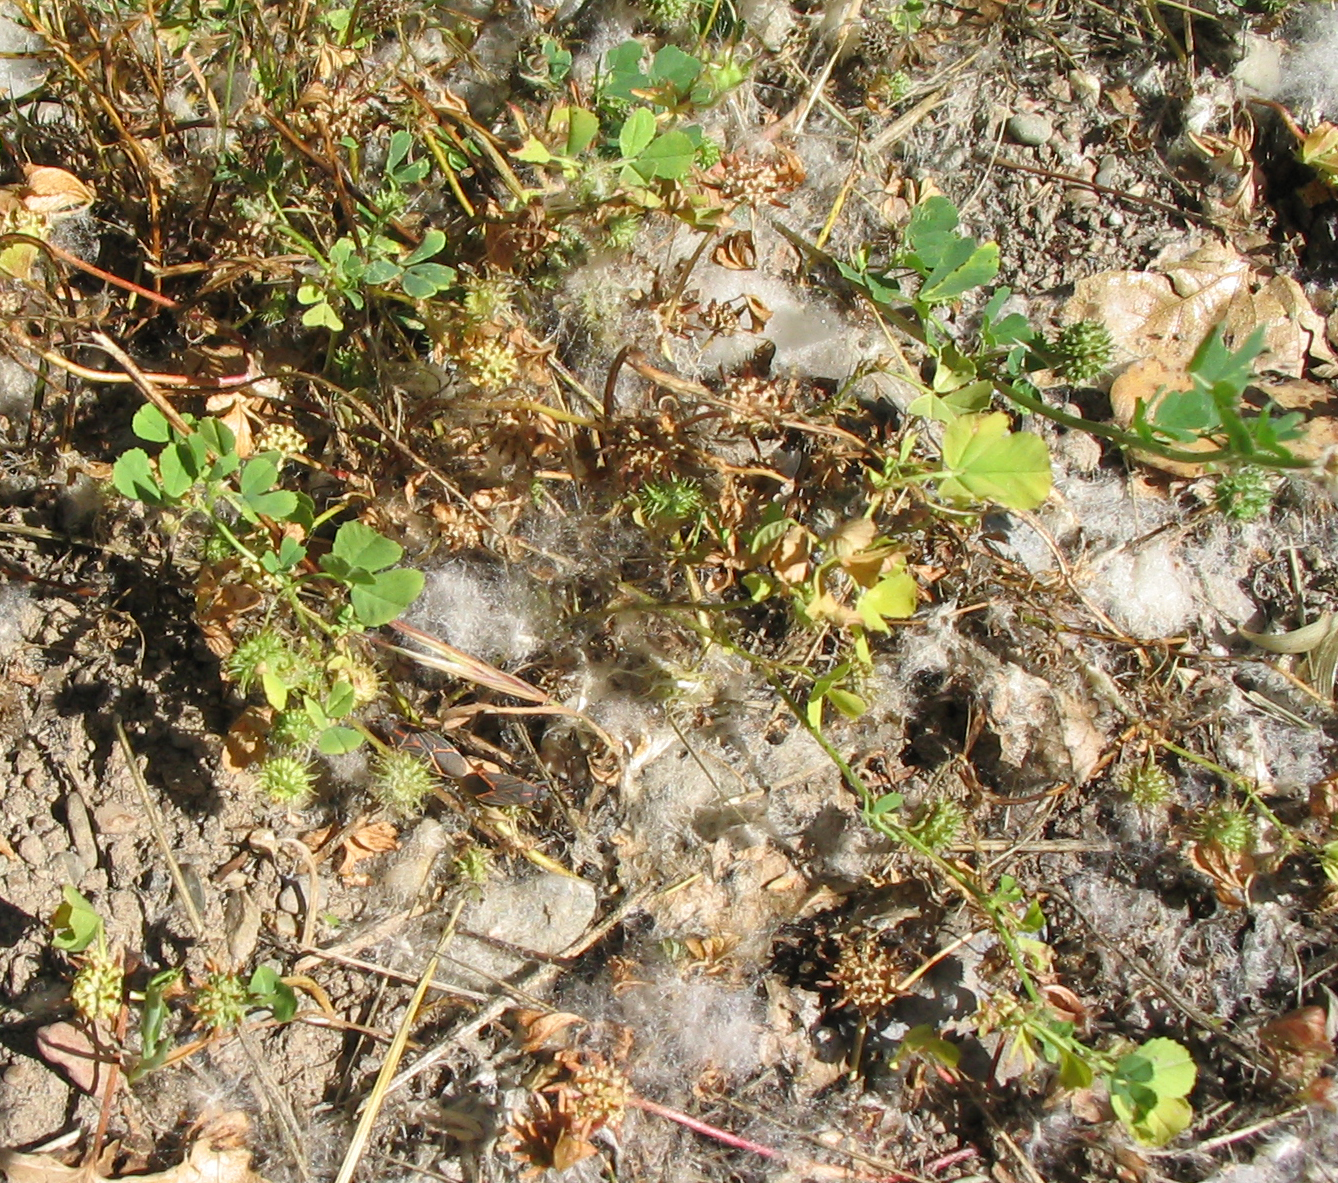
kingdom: Plantae
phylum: Tracheophyta
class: Magnoliopsida
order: Fabales
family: Fabaceae
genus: Medicago
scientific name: Medicago polymorpha
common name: Burclover
